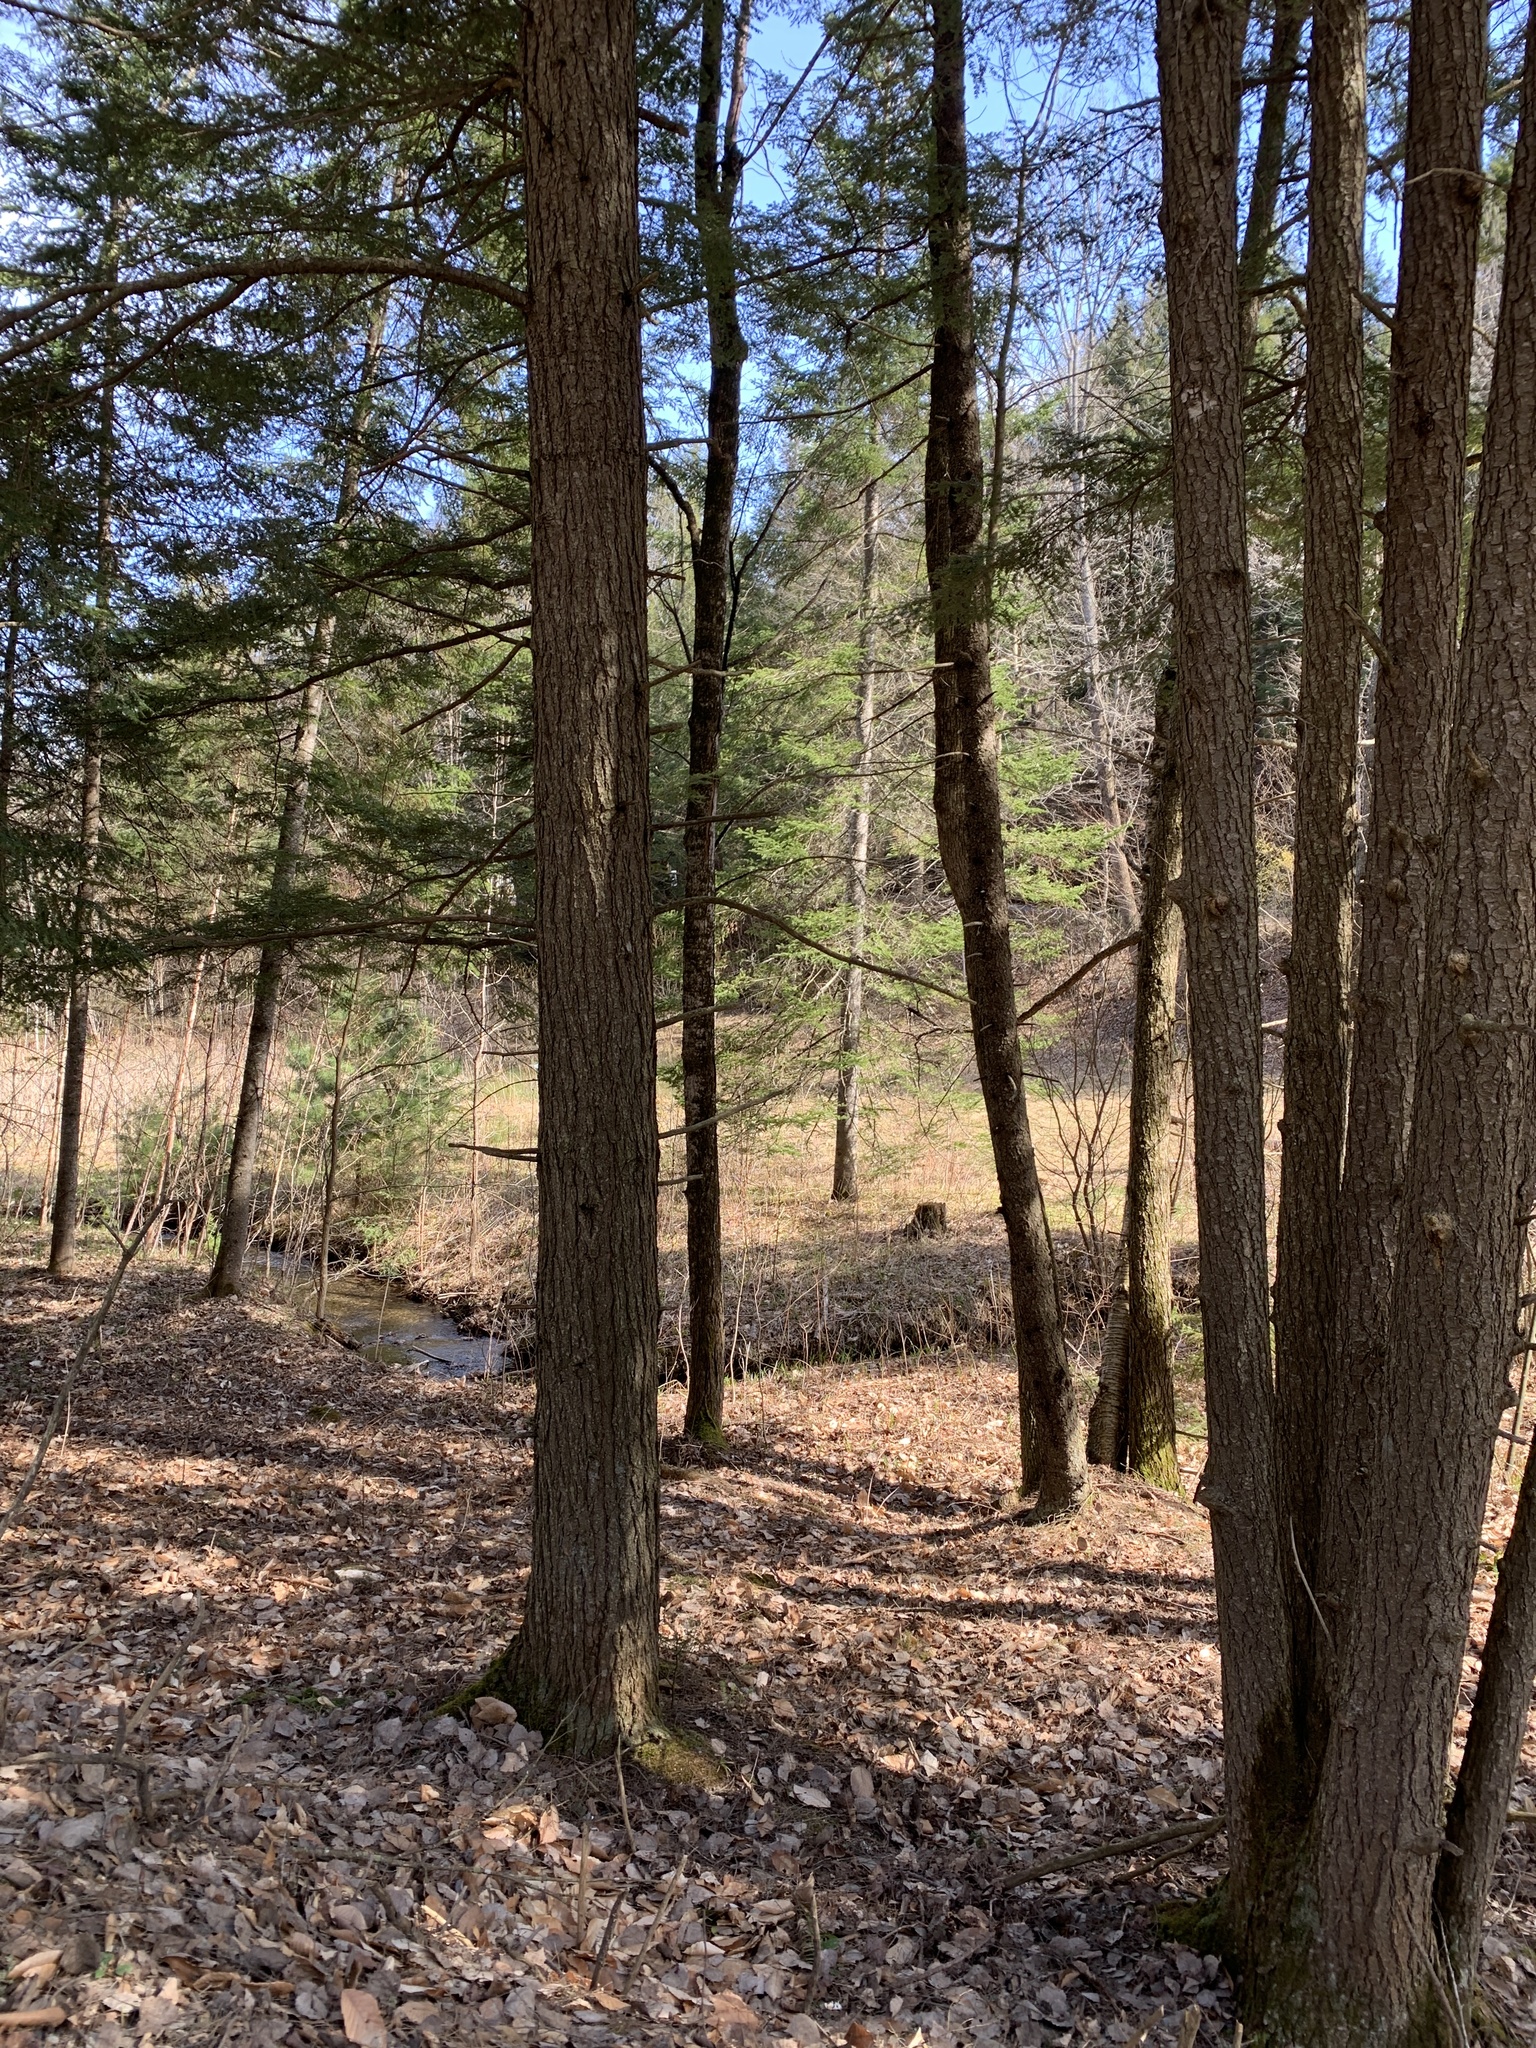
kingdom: Plantae
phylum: Tracheophyta
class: Pinopsida
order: Pinales
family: Pinaceae
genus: Tsuga
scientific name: Tsuga canadensis
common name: Eastern hemlock
